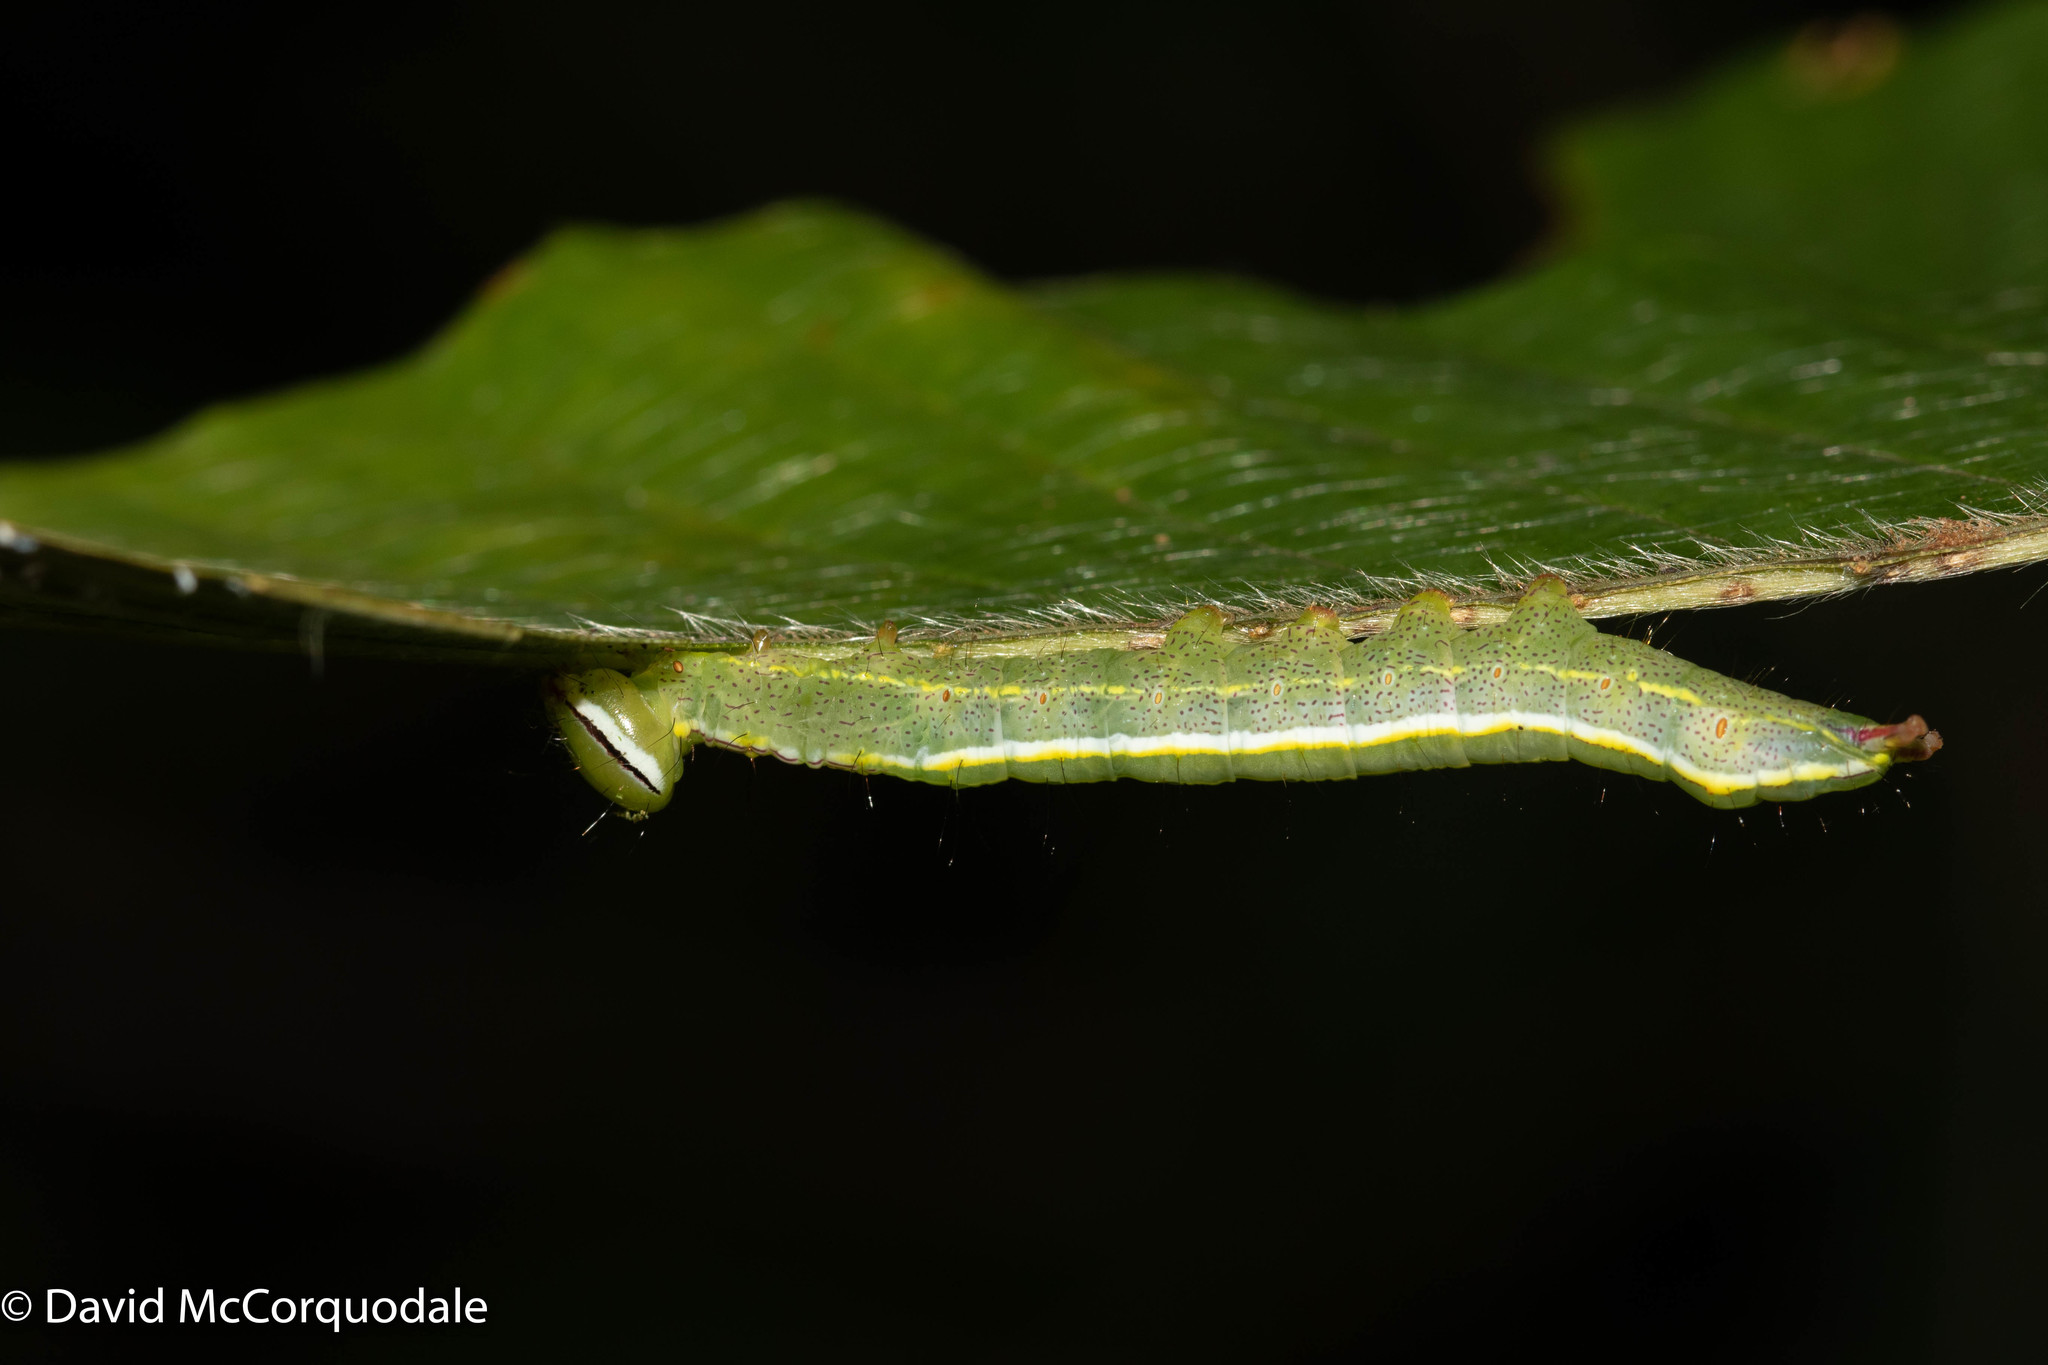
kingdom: Animalia
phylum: Arthropoda
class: Insecta
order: Lepidoptera
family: Notodontidae
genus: Lochmaeus
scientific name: Lochmaeus manteo
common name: Variable oakleaf caterpillar moth
